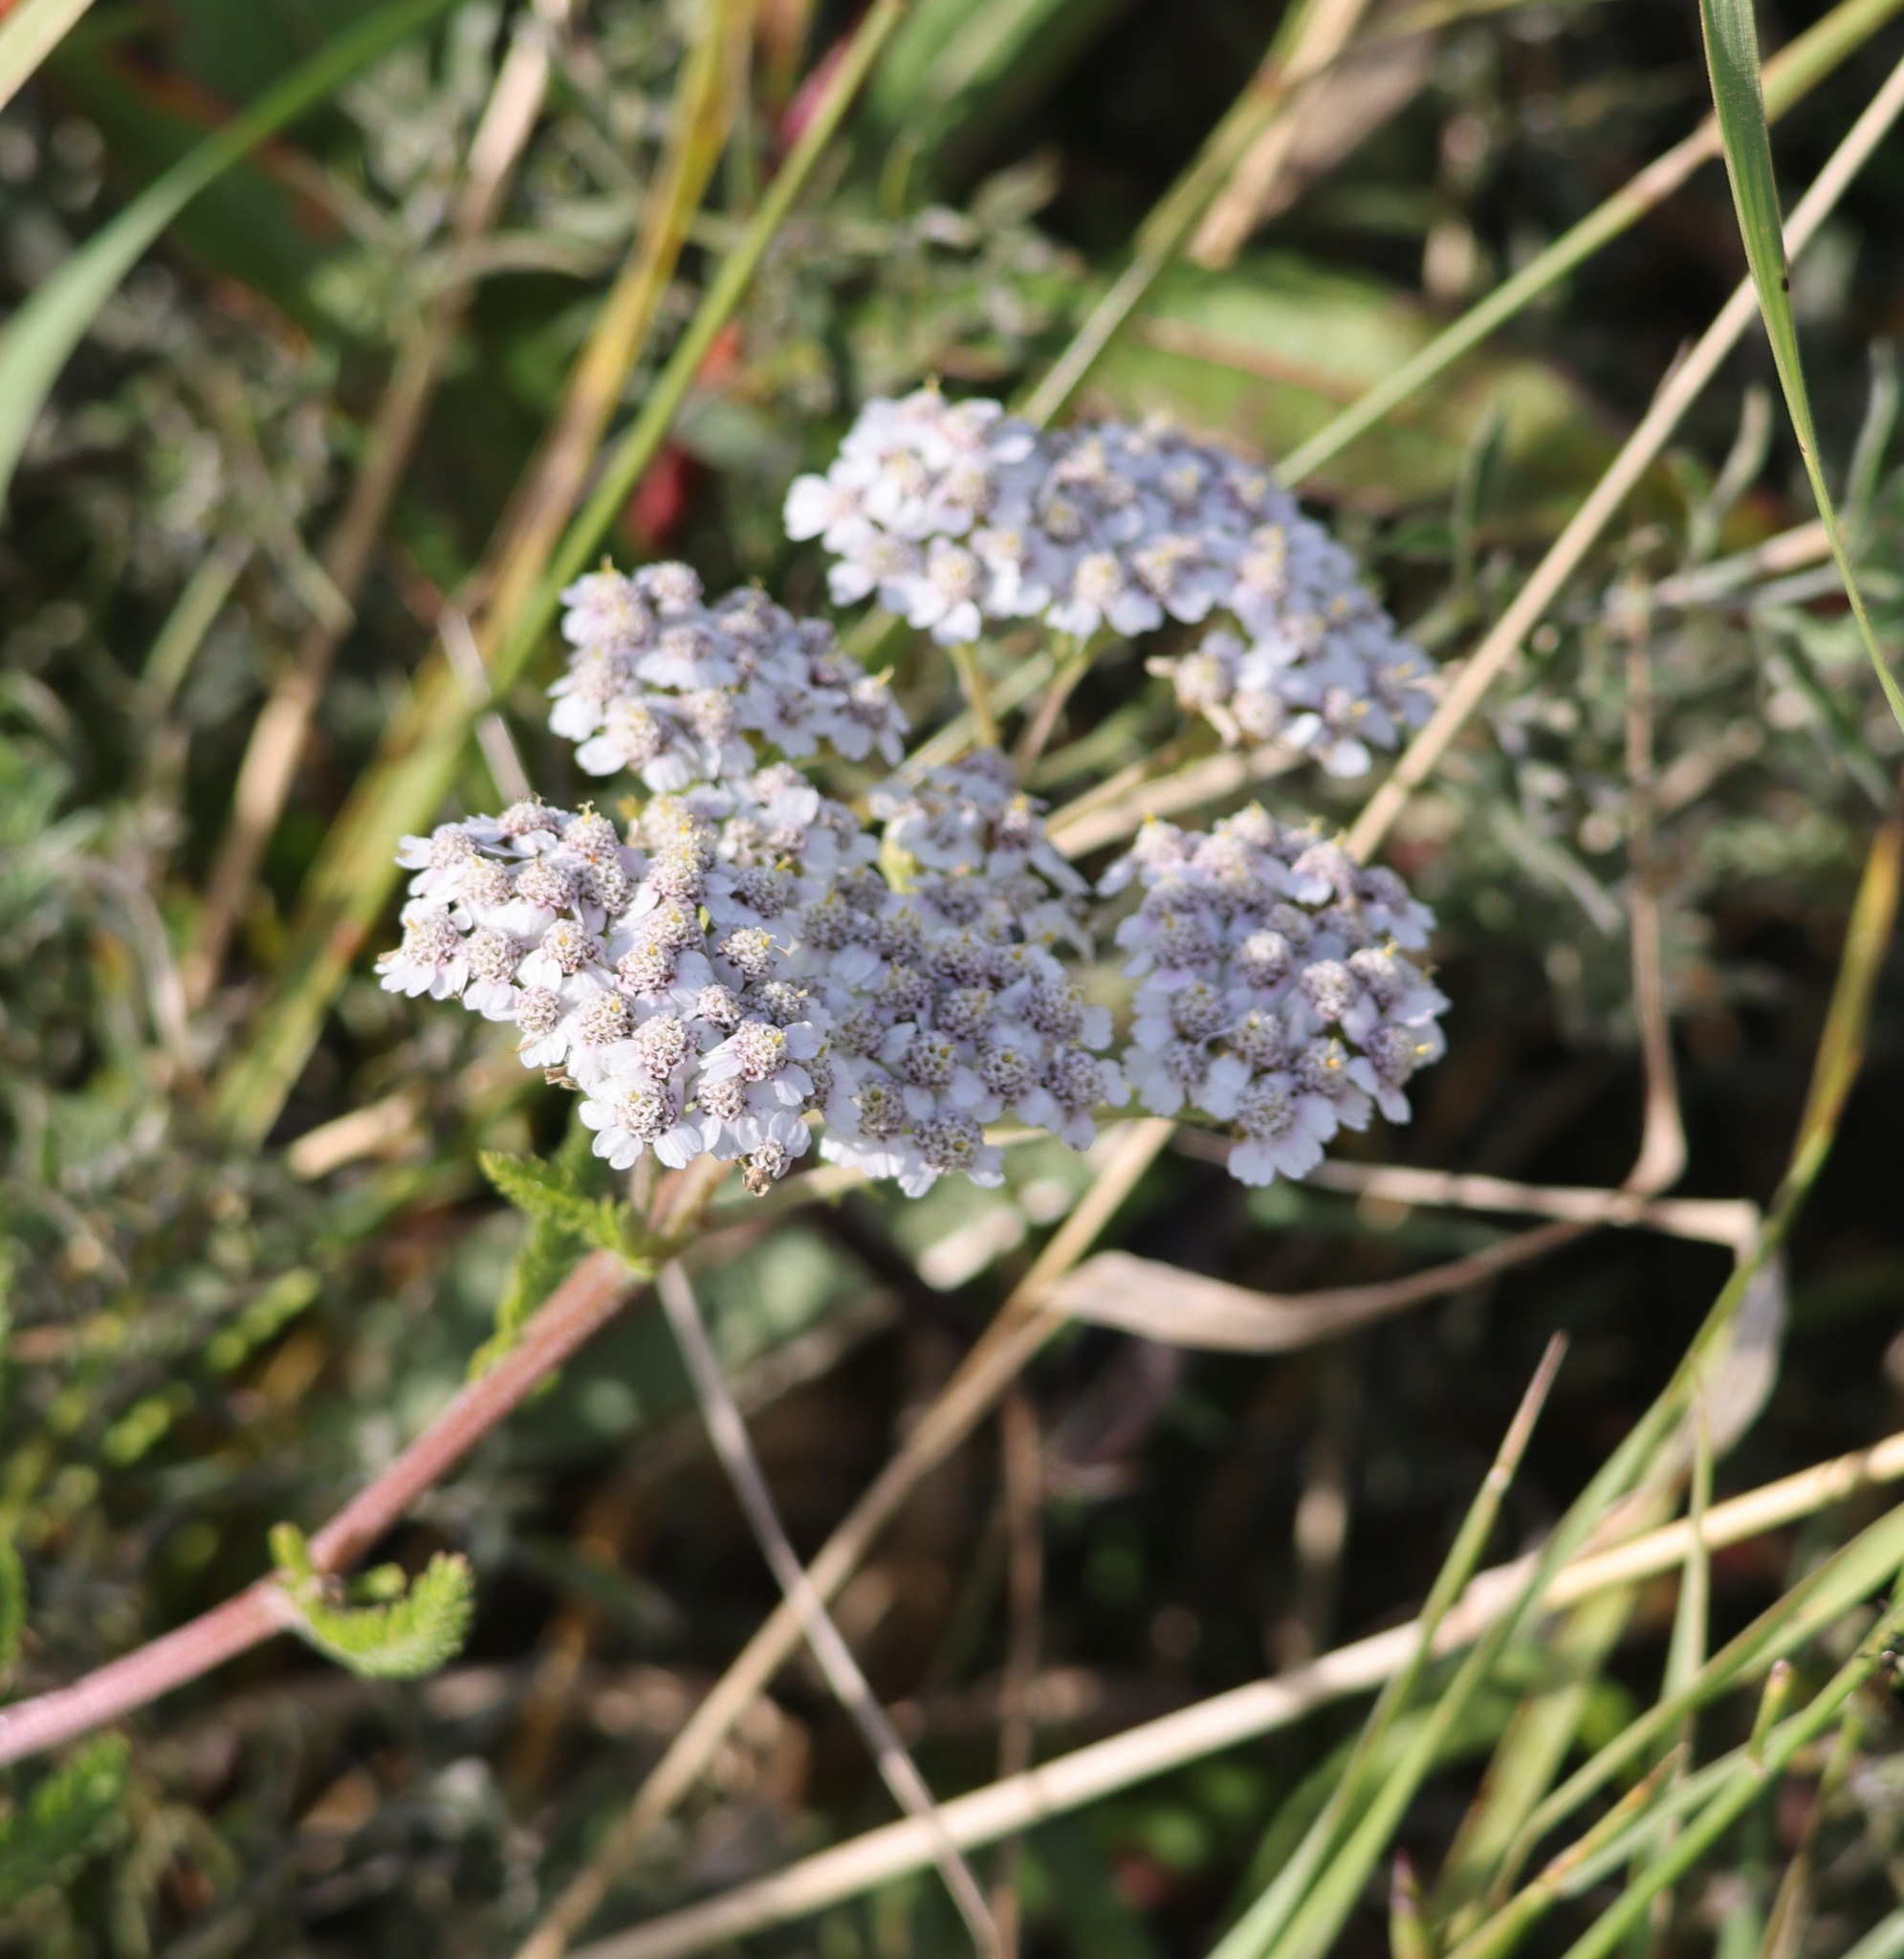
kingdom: Plantae
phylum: Tracheophyta
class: Magnoliopsida
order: Asterales
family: Asteraceae
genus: Achillea
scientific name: Achillea millefolium
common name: Yarrow
